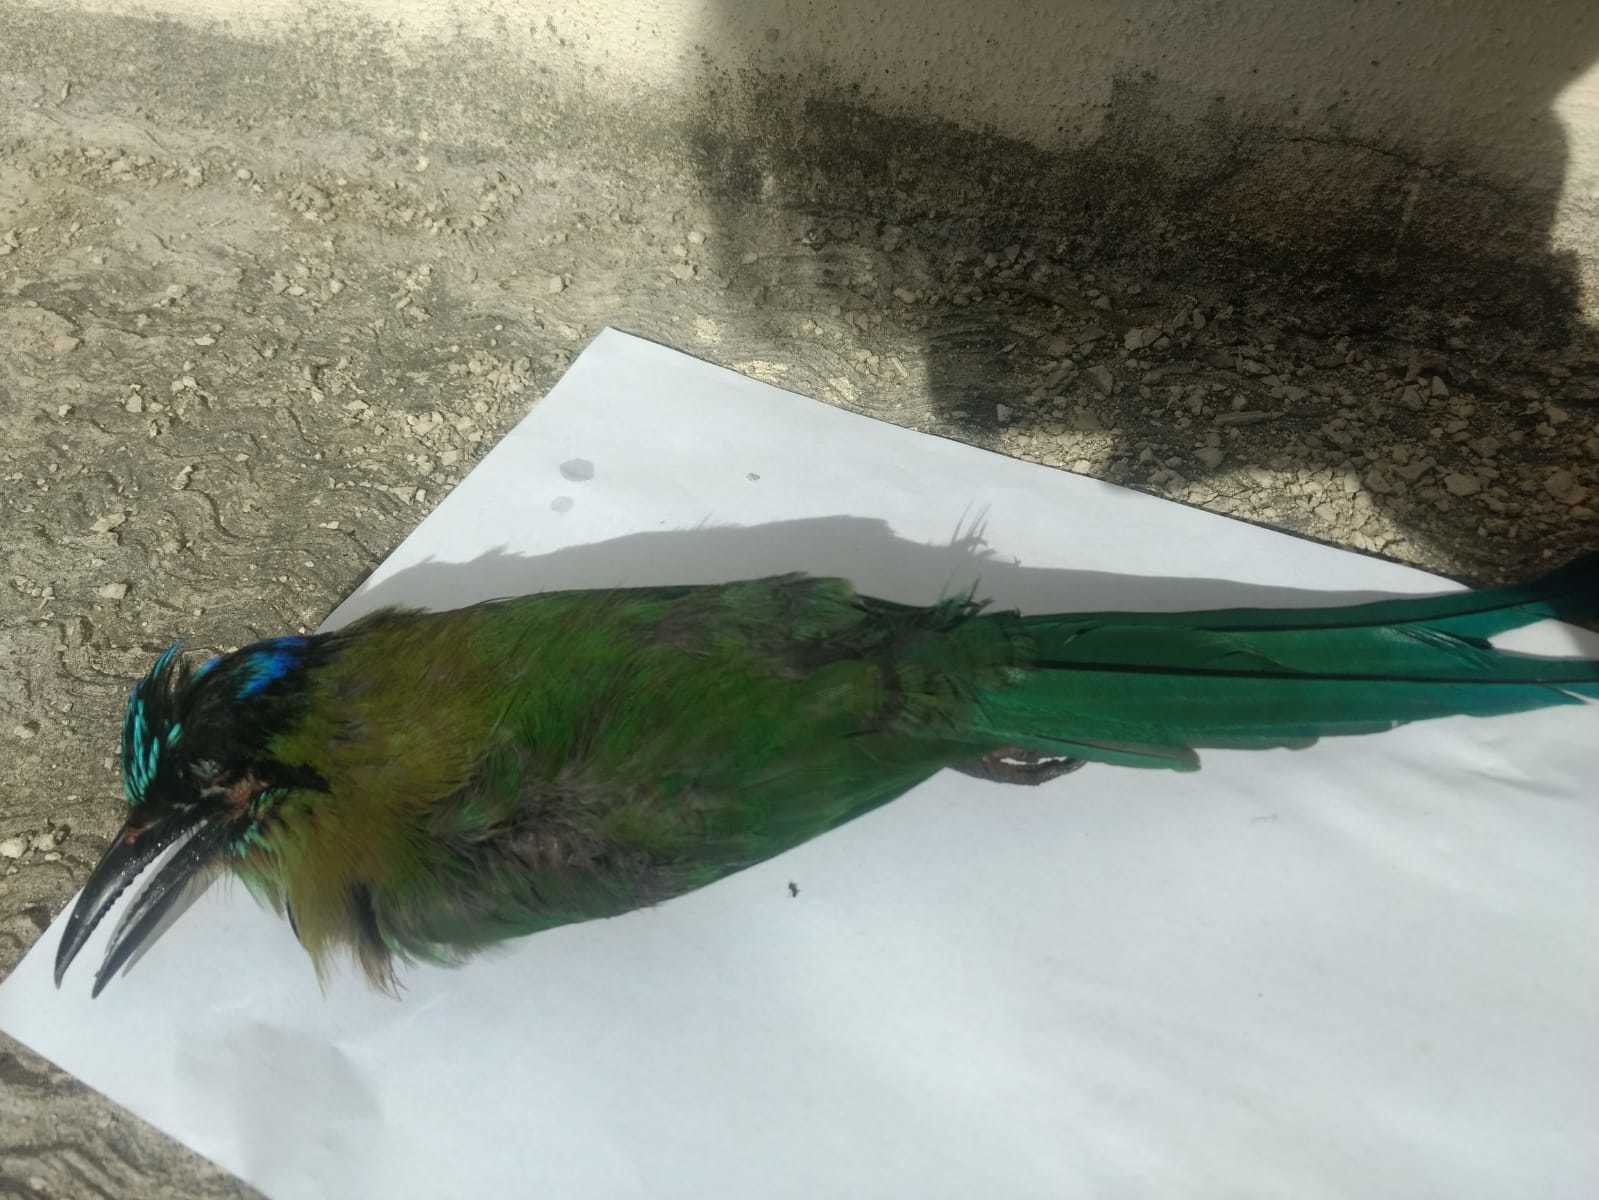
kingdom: Animalia
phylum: Chordata
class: Aves
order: Coraciiformes
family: Momotidae
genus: Momotus
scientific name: Momotus lessonii
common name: Lesson's motmot
